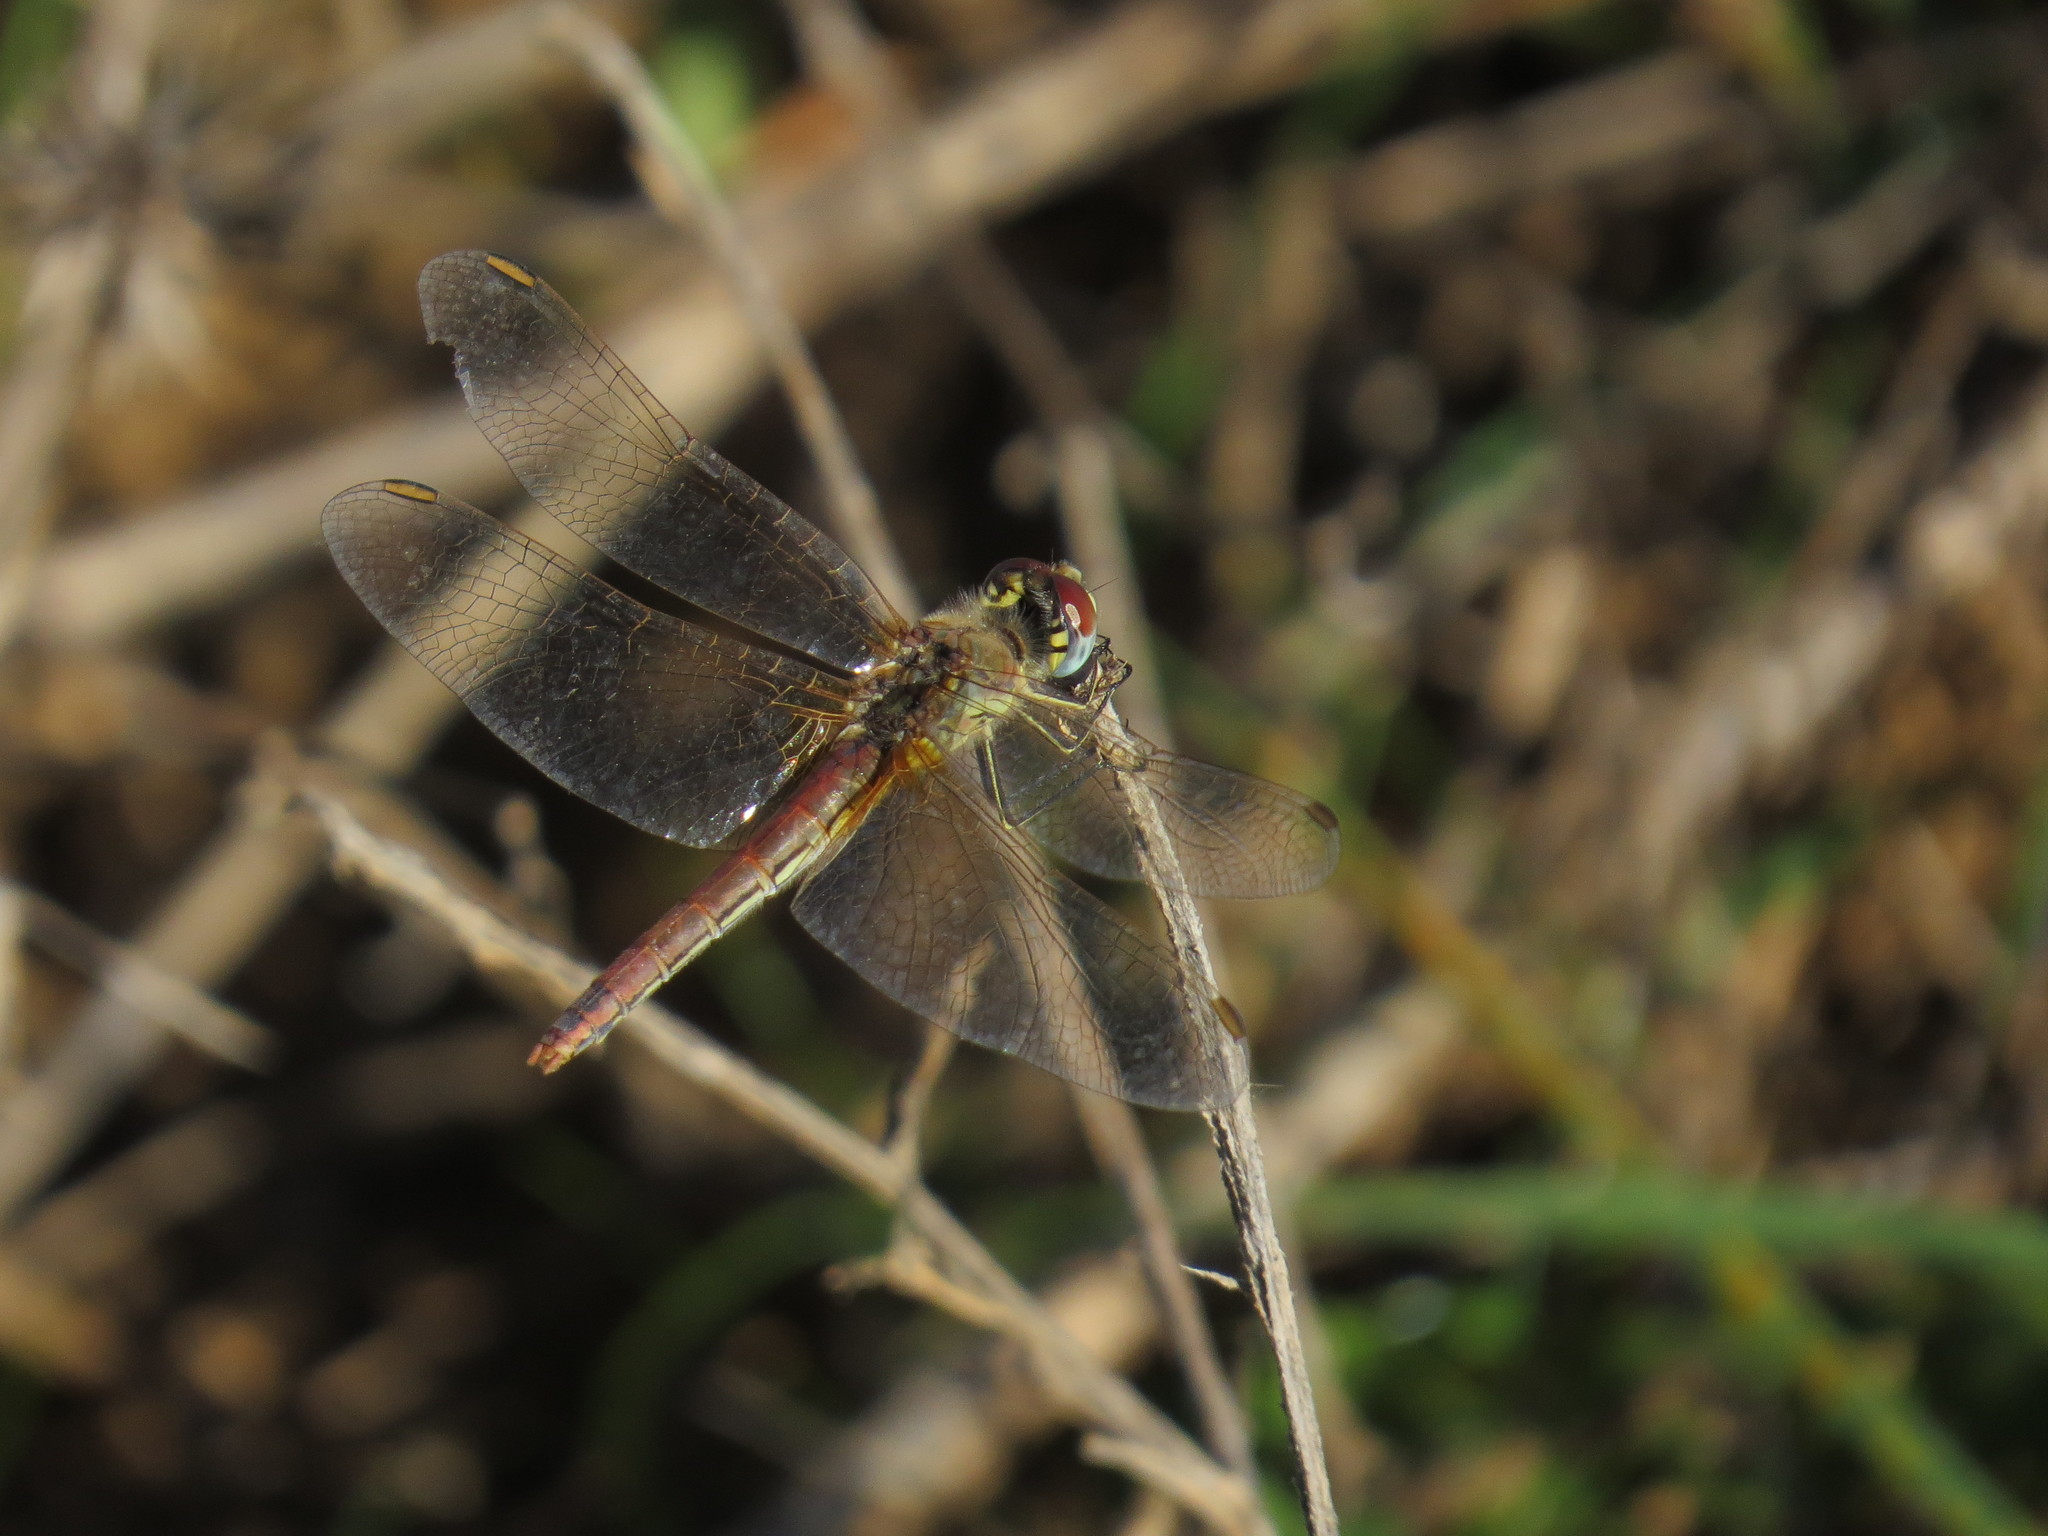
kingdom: Animalia
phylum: Arthropoda
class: Insecta
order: Odonata
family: Libellulidae
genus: Sympetrum
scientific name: Sympetrum fonscolombii
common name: Red-veined darter
